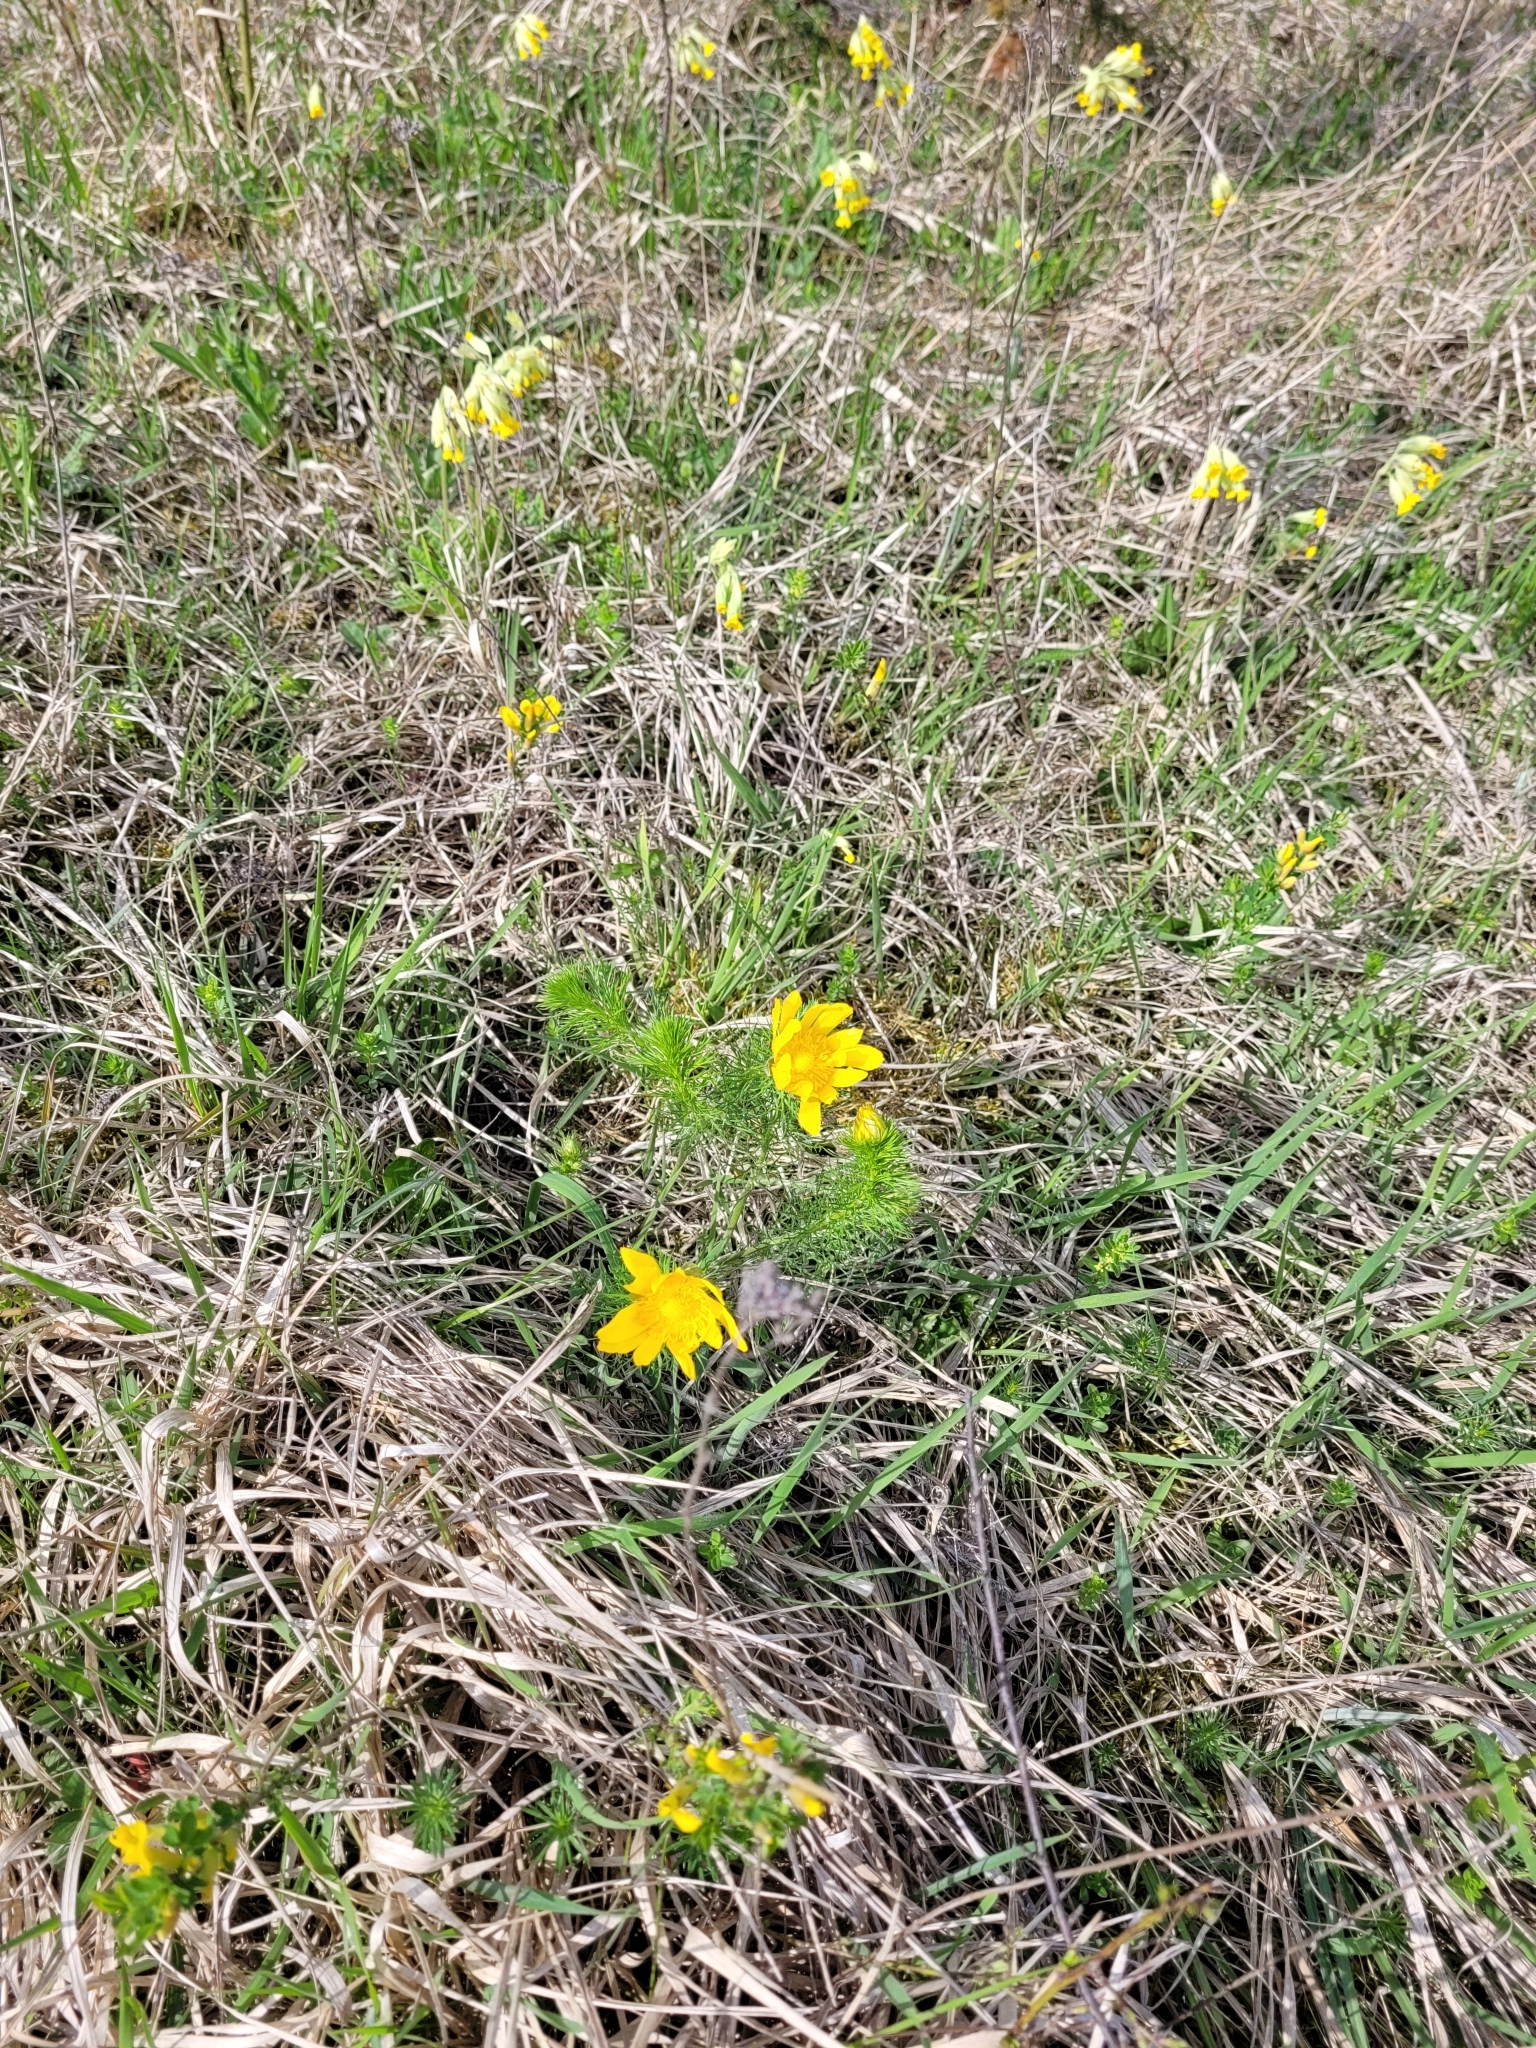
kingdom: Plantae
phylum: Tracheophyta
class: Magnoliopsida
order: Ranunculales
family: Ranunculaceae
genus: Adonis
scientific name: Adonis vernalis
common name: Yellow pheasants-eye
